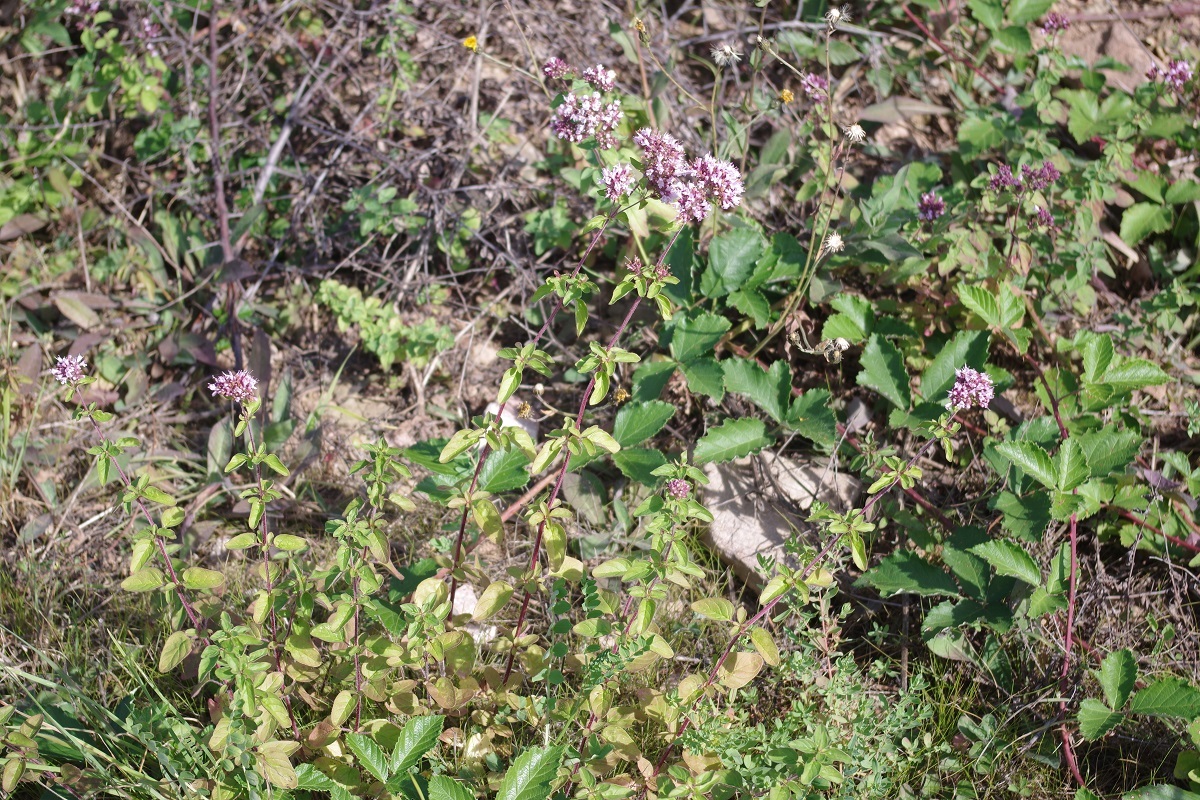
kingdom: Plantae
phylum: Tracheophyta
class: Magnoliopsida
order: Lamiales
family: Lamiaceae
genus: Origanum
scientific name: Origanum vulgare
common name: Wild marjoram
